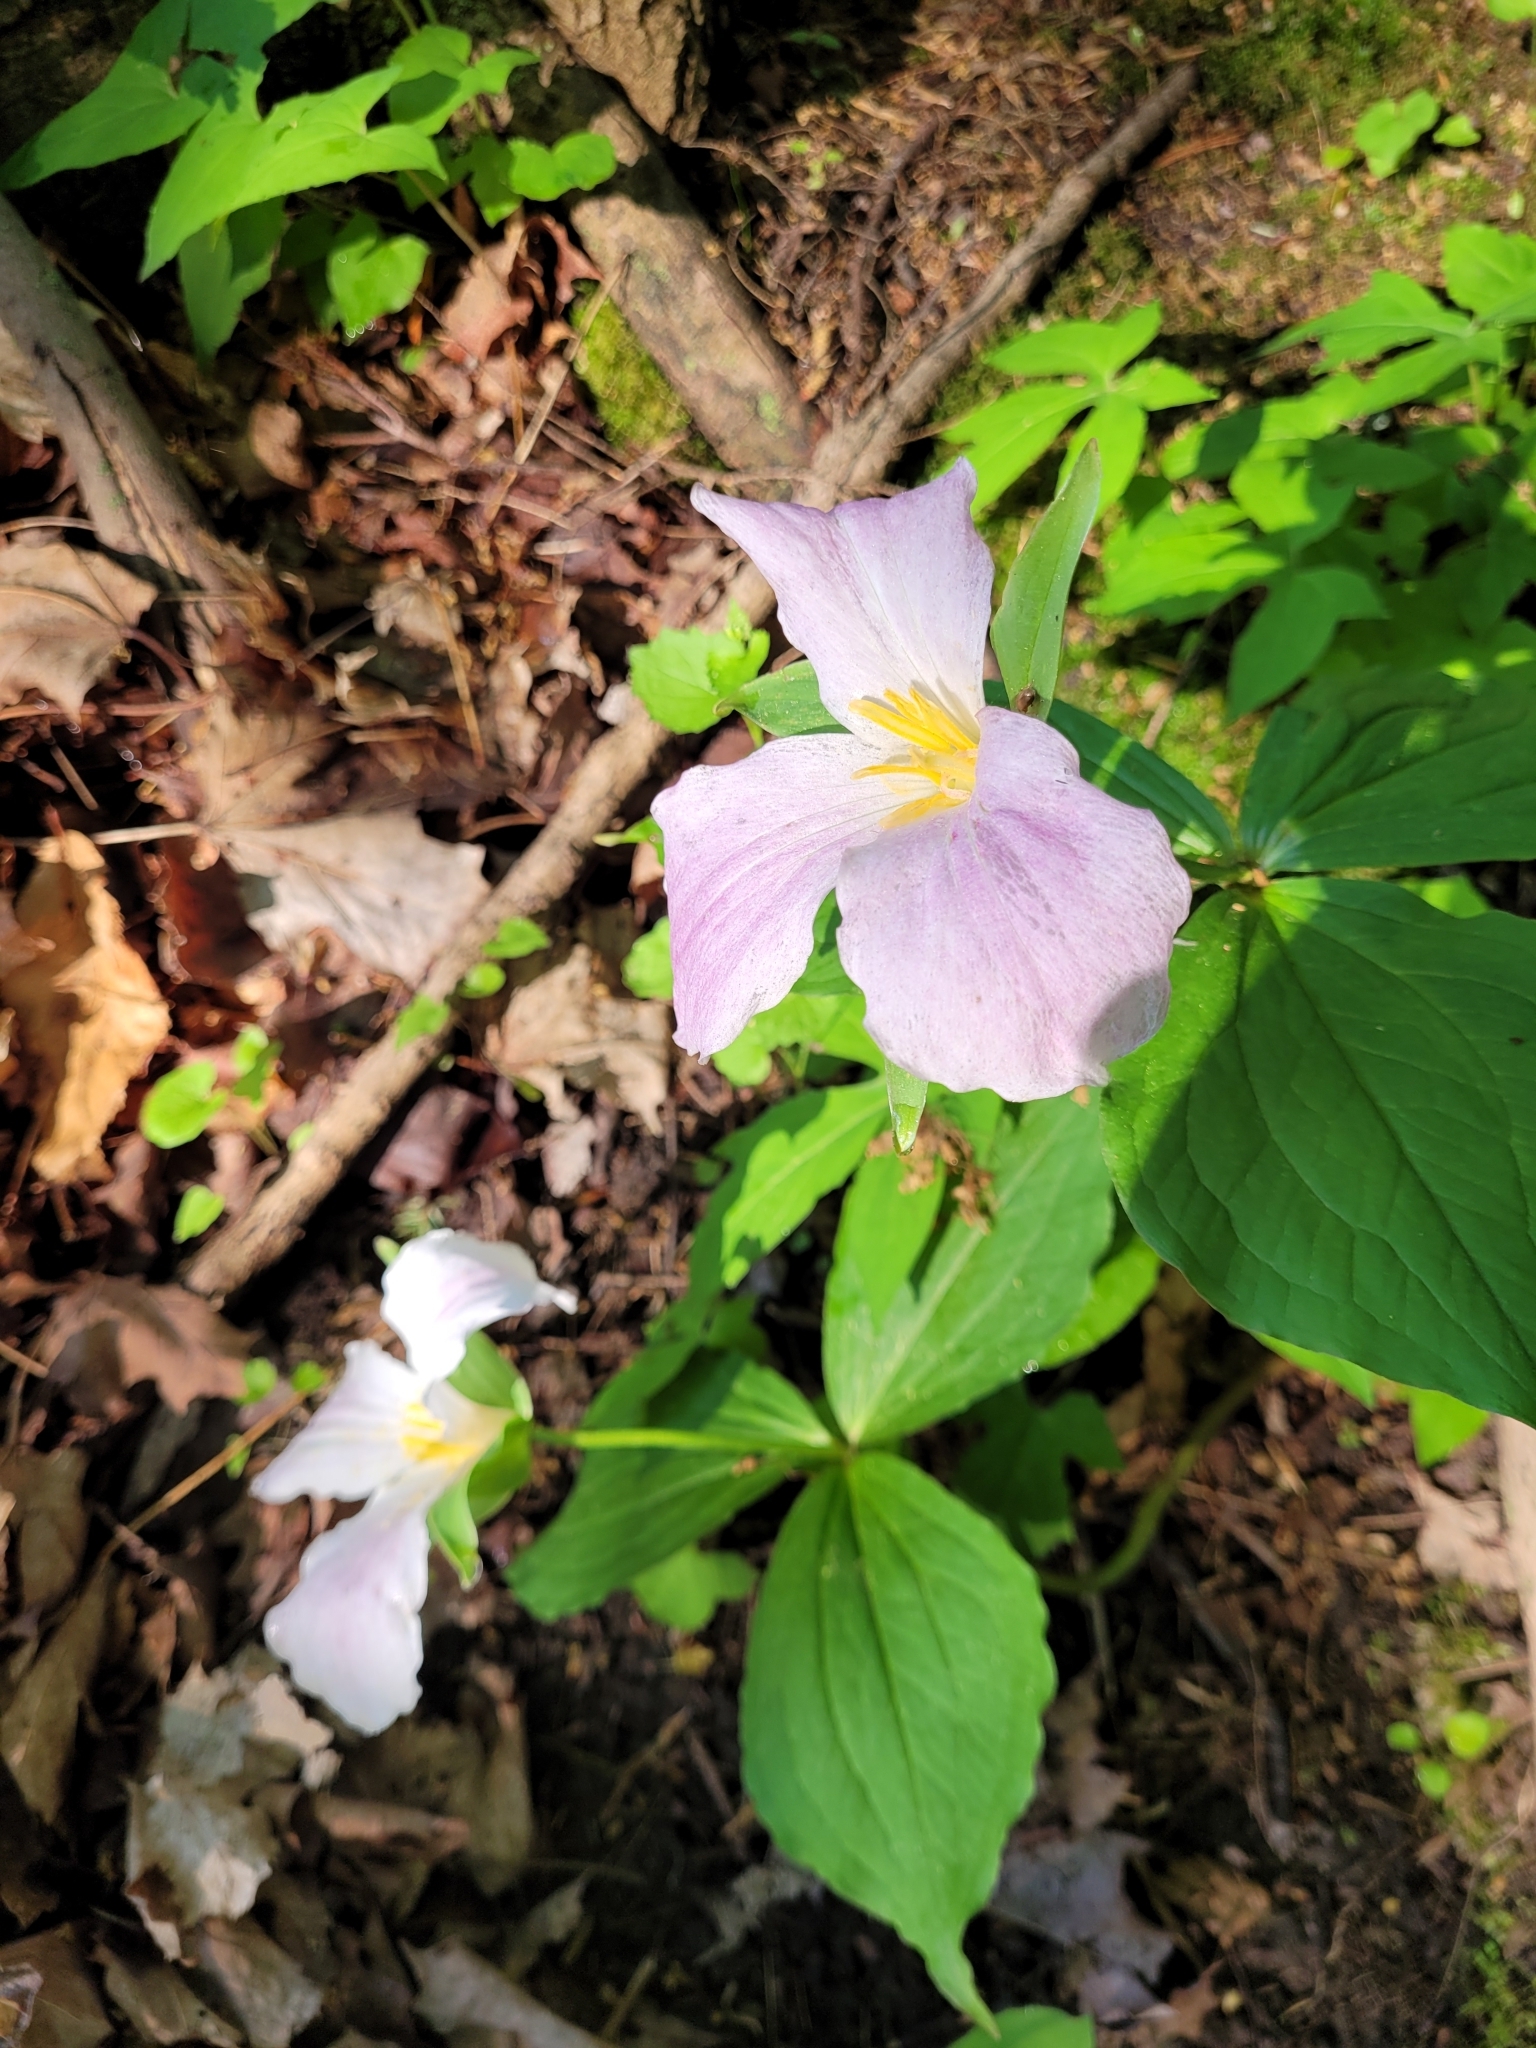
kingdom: Plantae
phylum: Tracheophyta
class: Liliopsida
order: Liliales
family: Melanthiaceae
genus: Trillium
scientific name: Trillium grandiflorum
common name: Great white trillium
